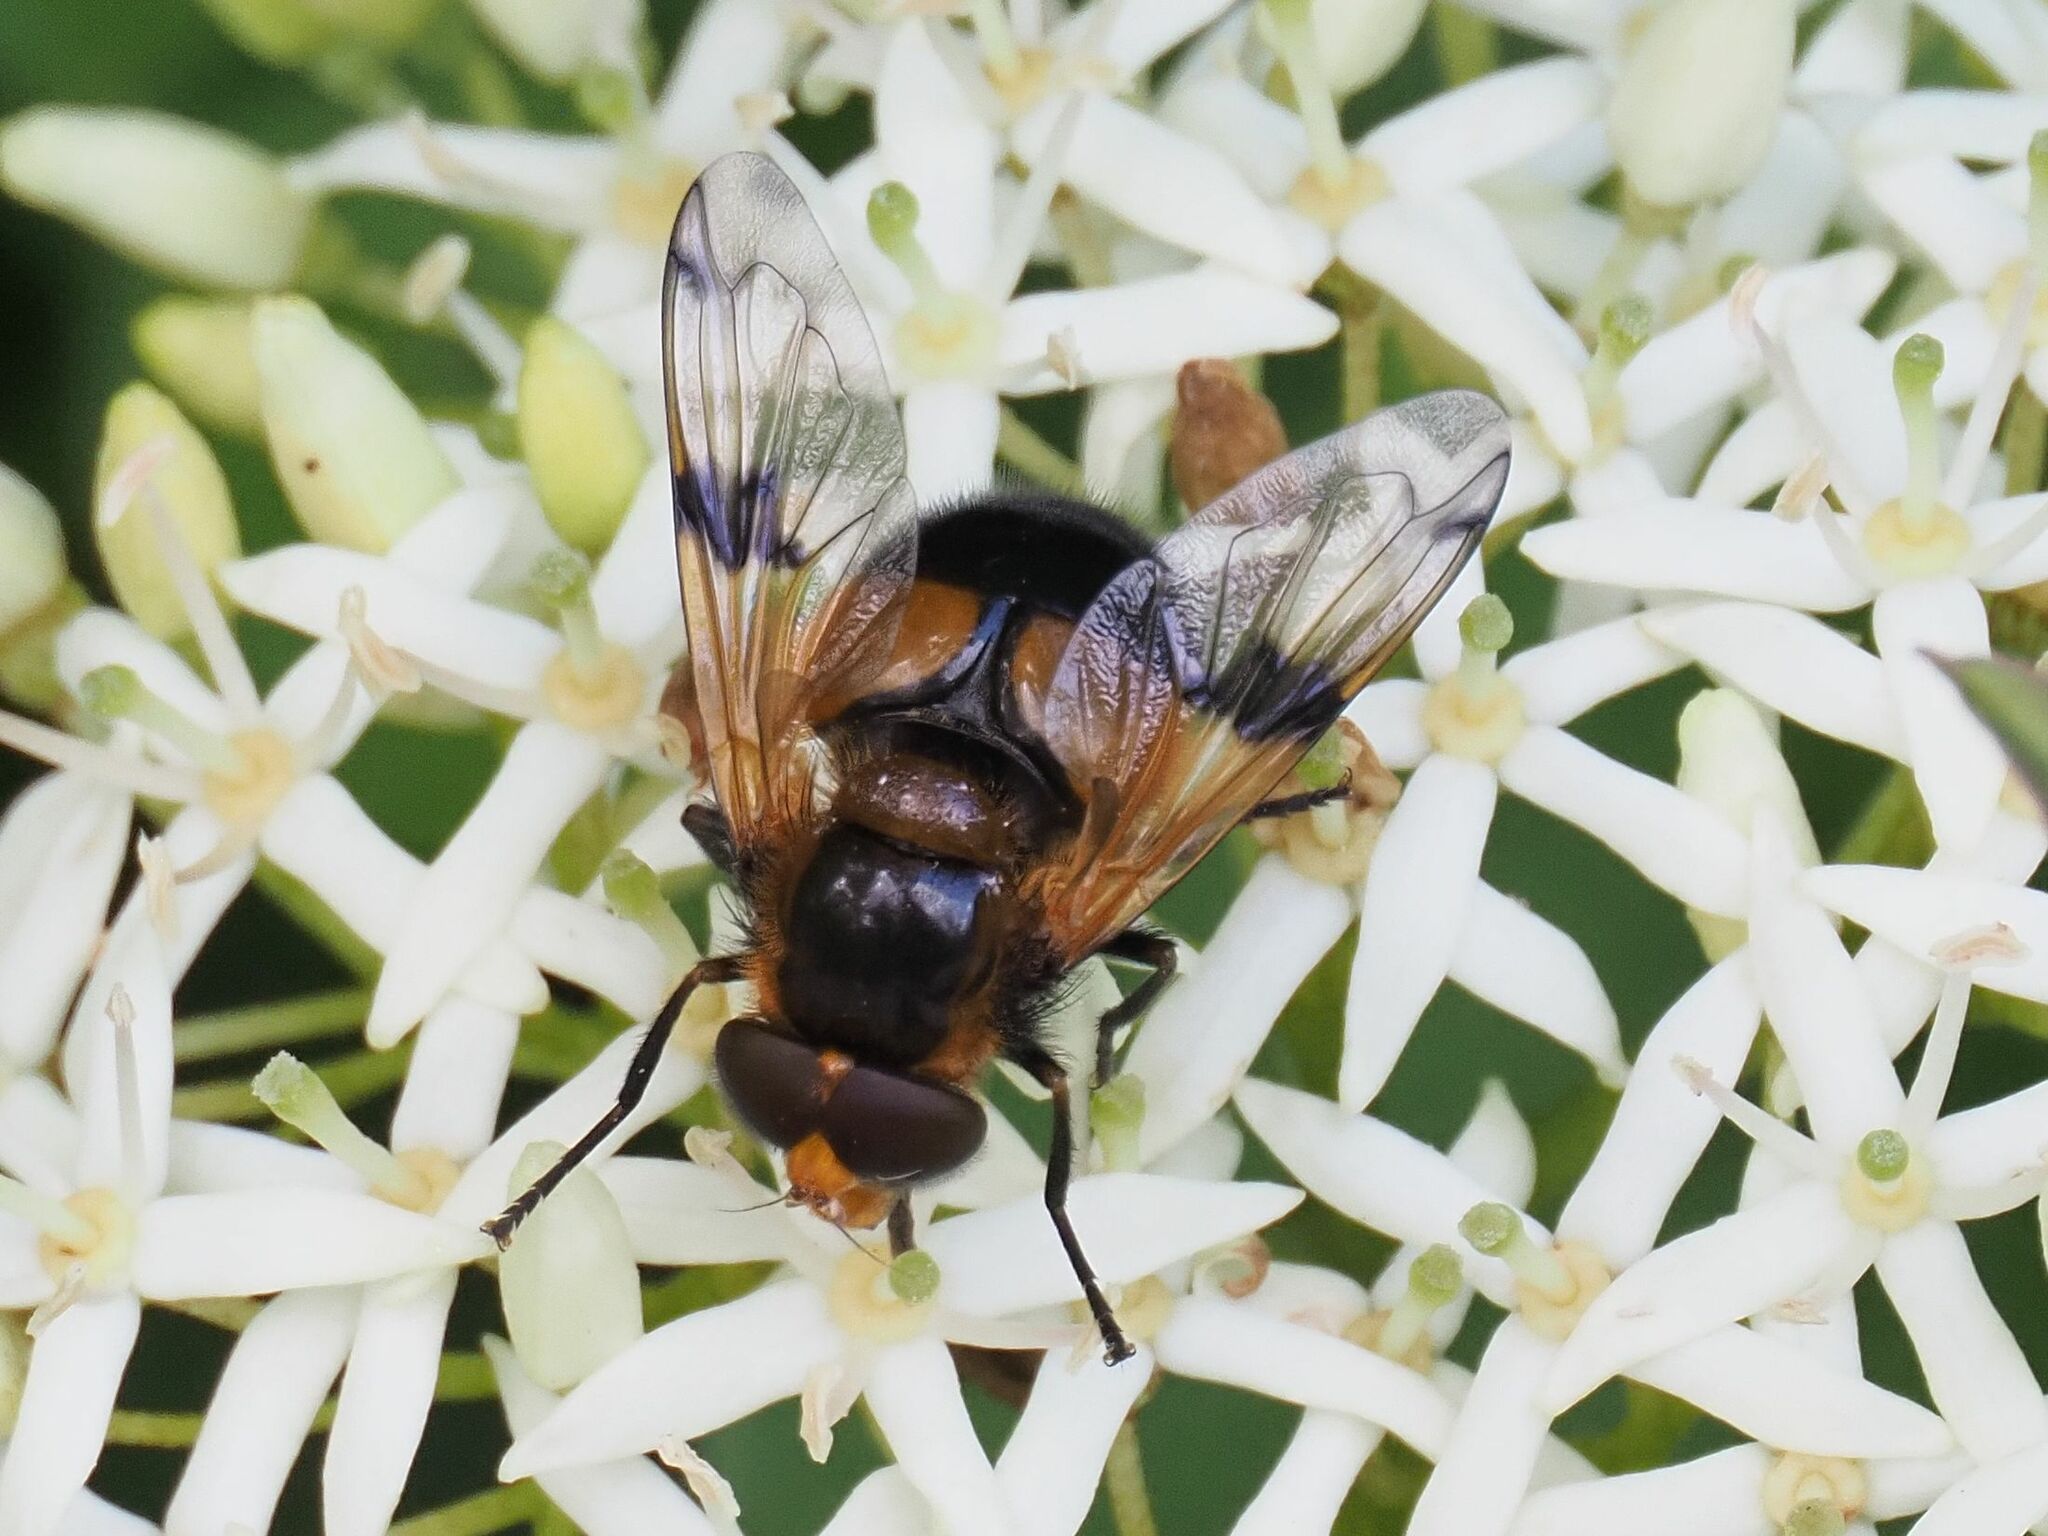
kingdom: Animalia
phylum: Arthropoda
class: Insecta
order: Diptera
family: Syrphidae
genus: Volucella
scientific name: Volucella inflata
